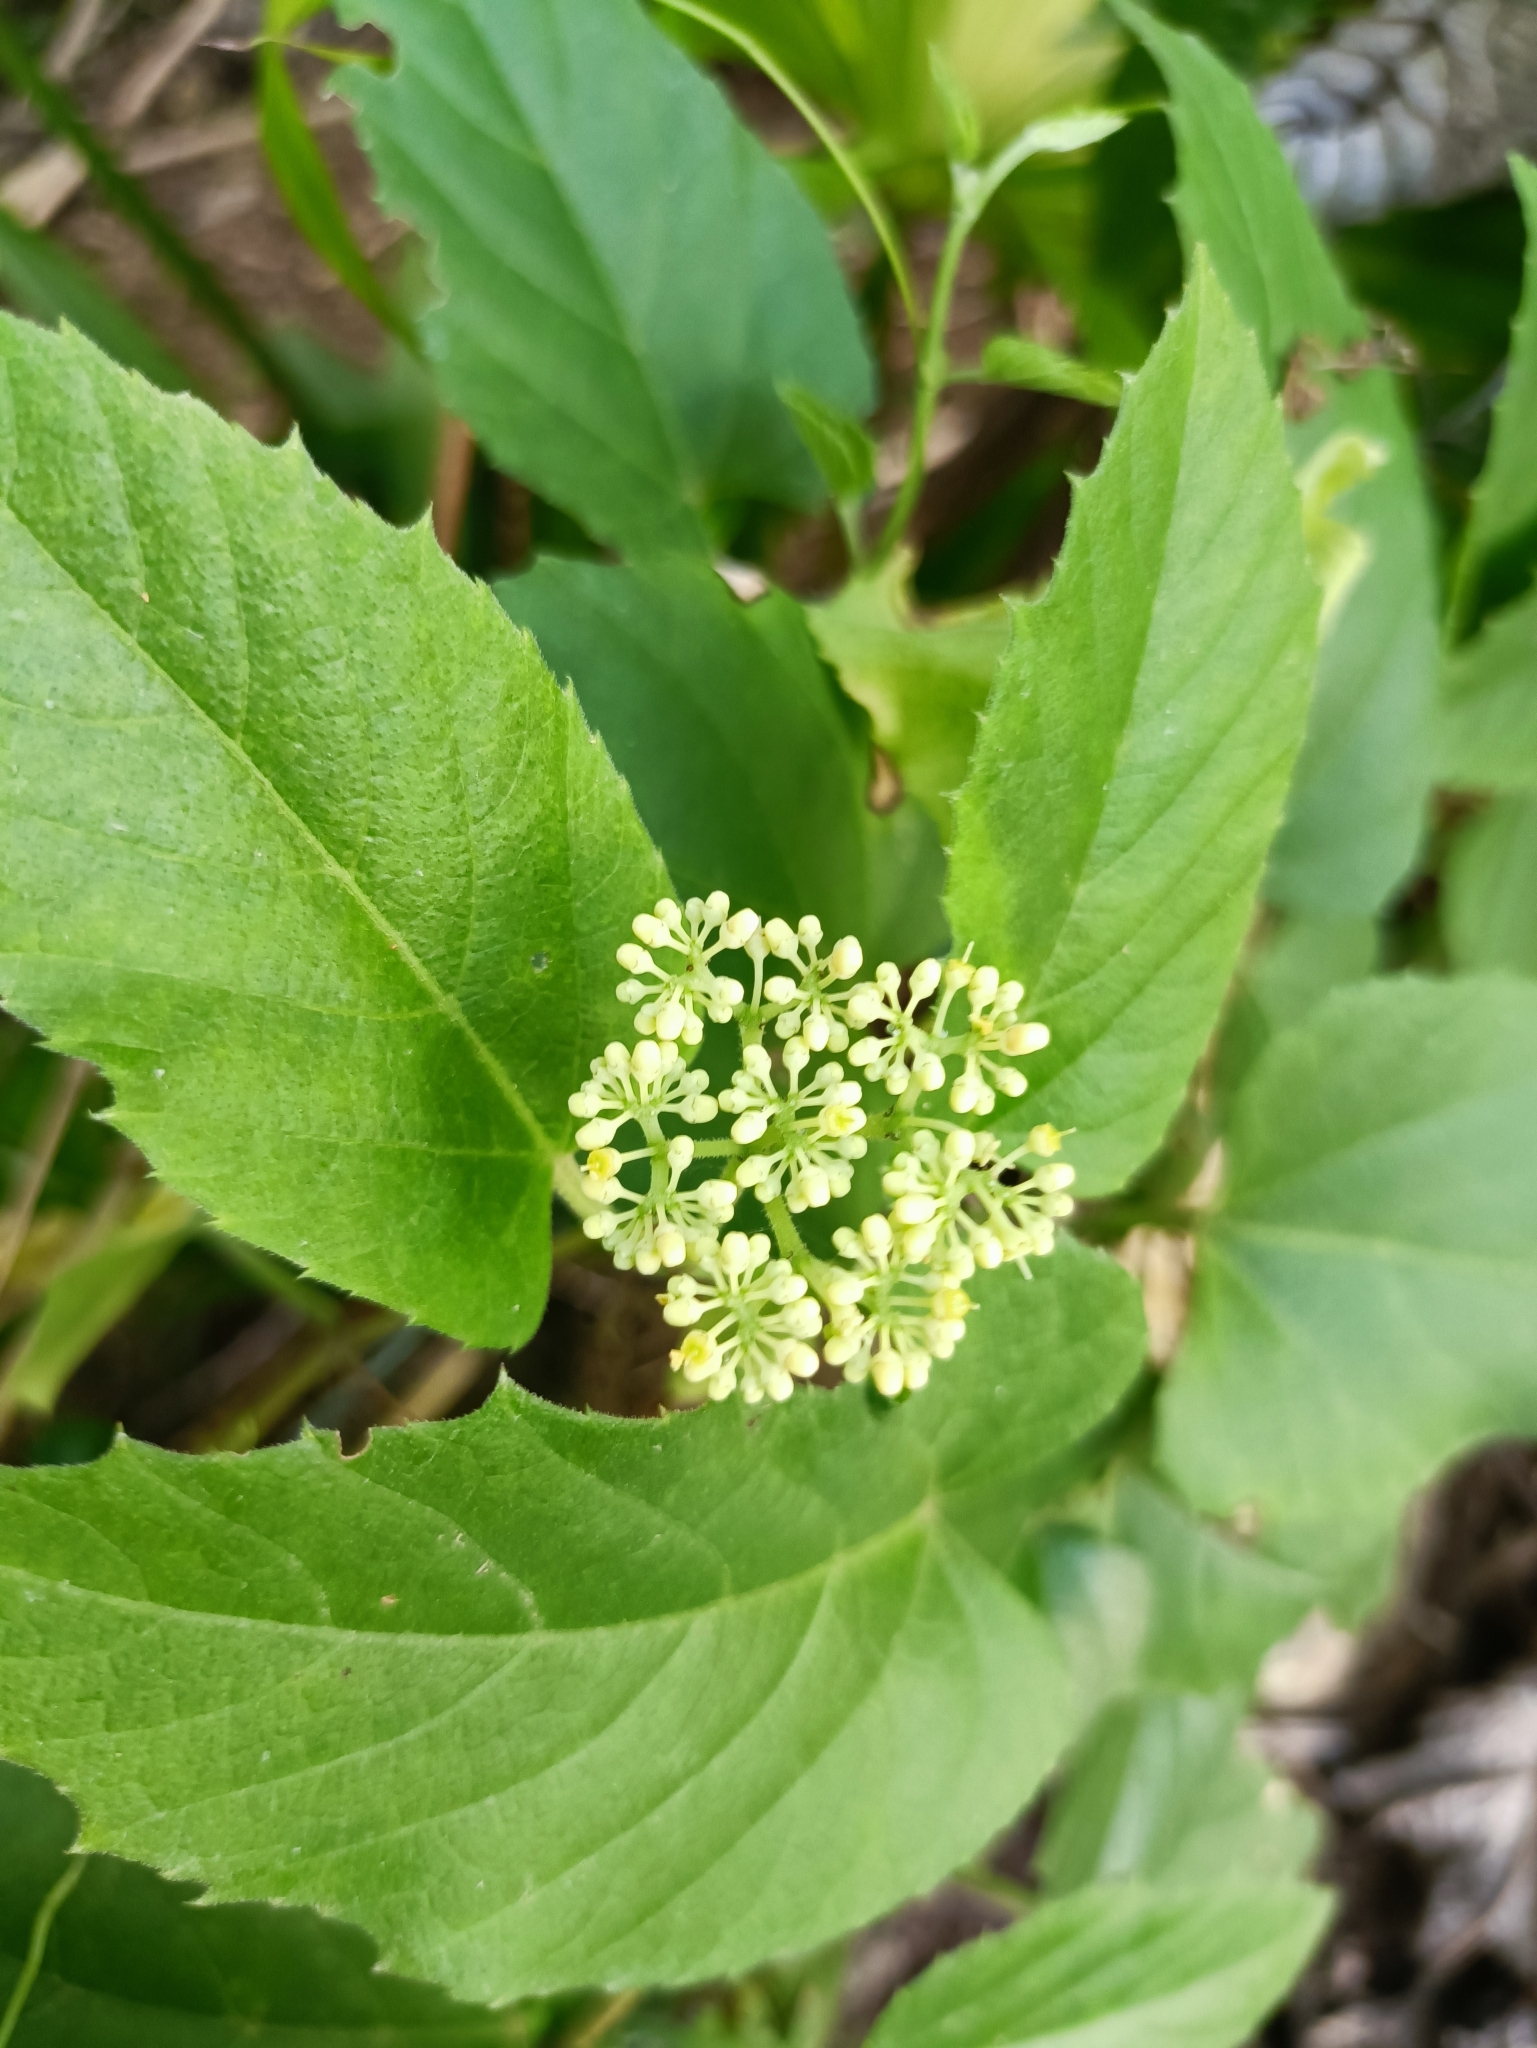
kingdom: Plantae
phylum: Tracheophyta
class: Magnoliopsida
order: Vitales
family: Vitaceae
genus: Cissus
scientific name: Cissus verticillata
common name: Princess vine
